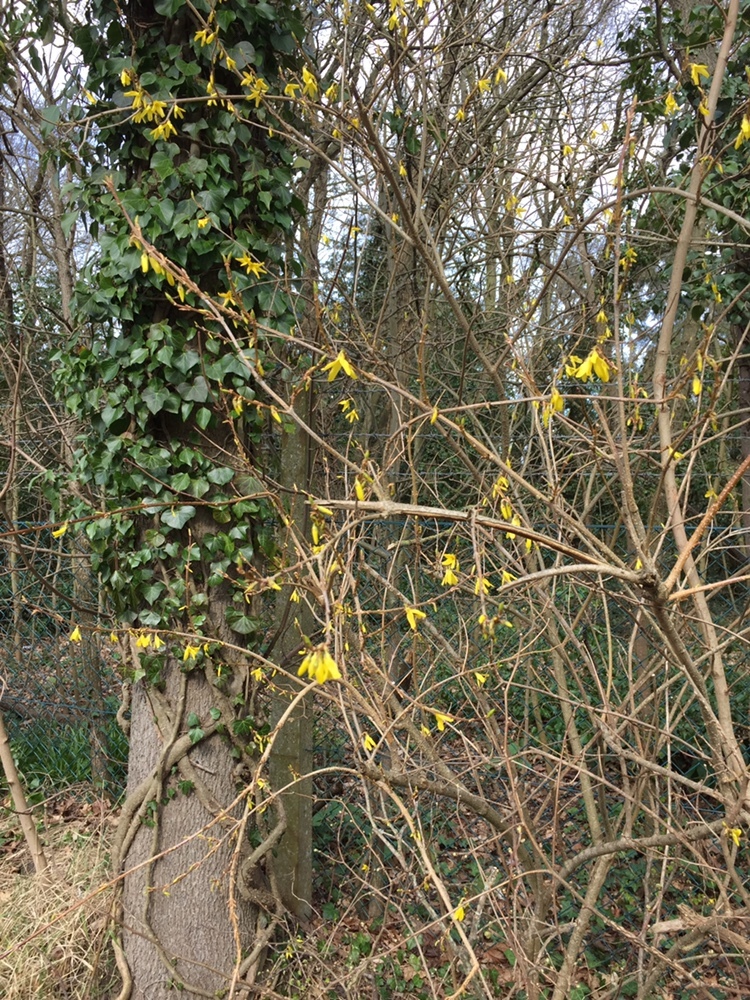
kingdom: Plantae
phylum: Tracheophyta
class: Magnoliopsida
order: Lamiales
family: Oleaceae
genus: Forsythia
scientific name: Forsythia intermedia
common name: Forsythia
